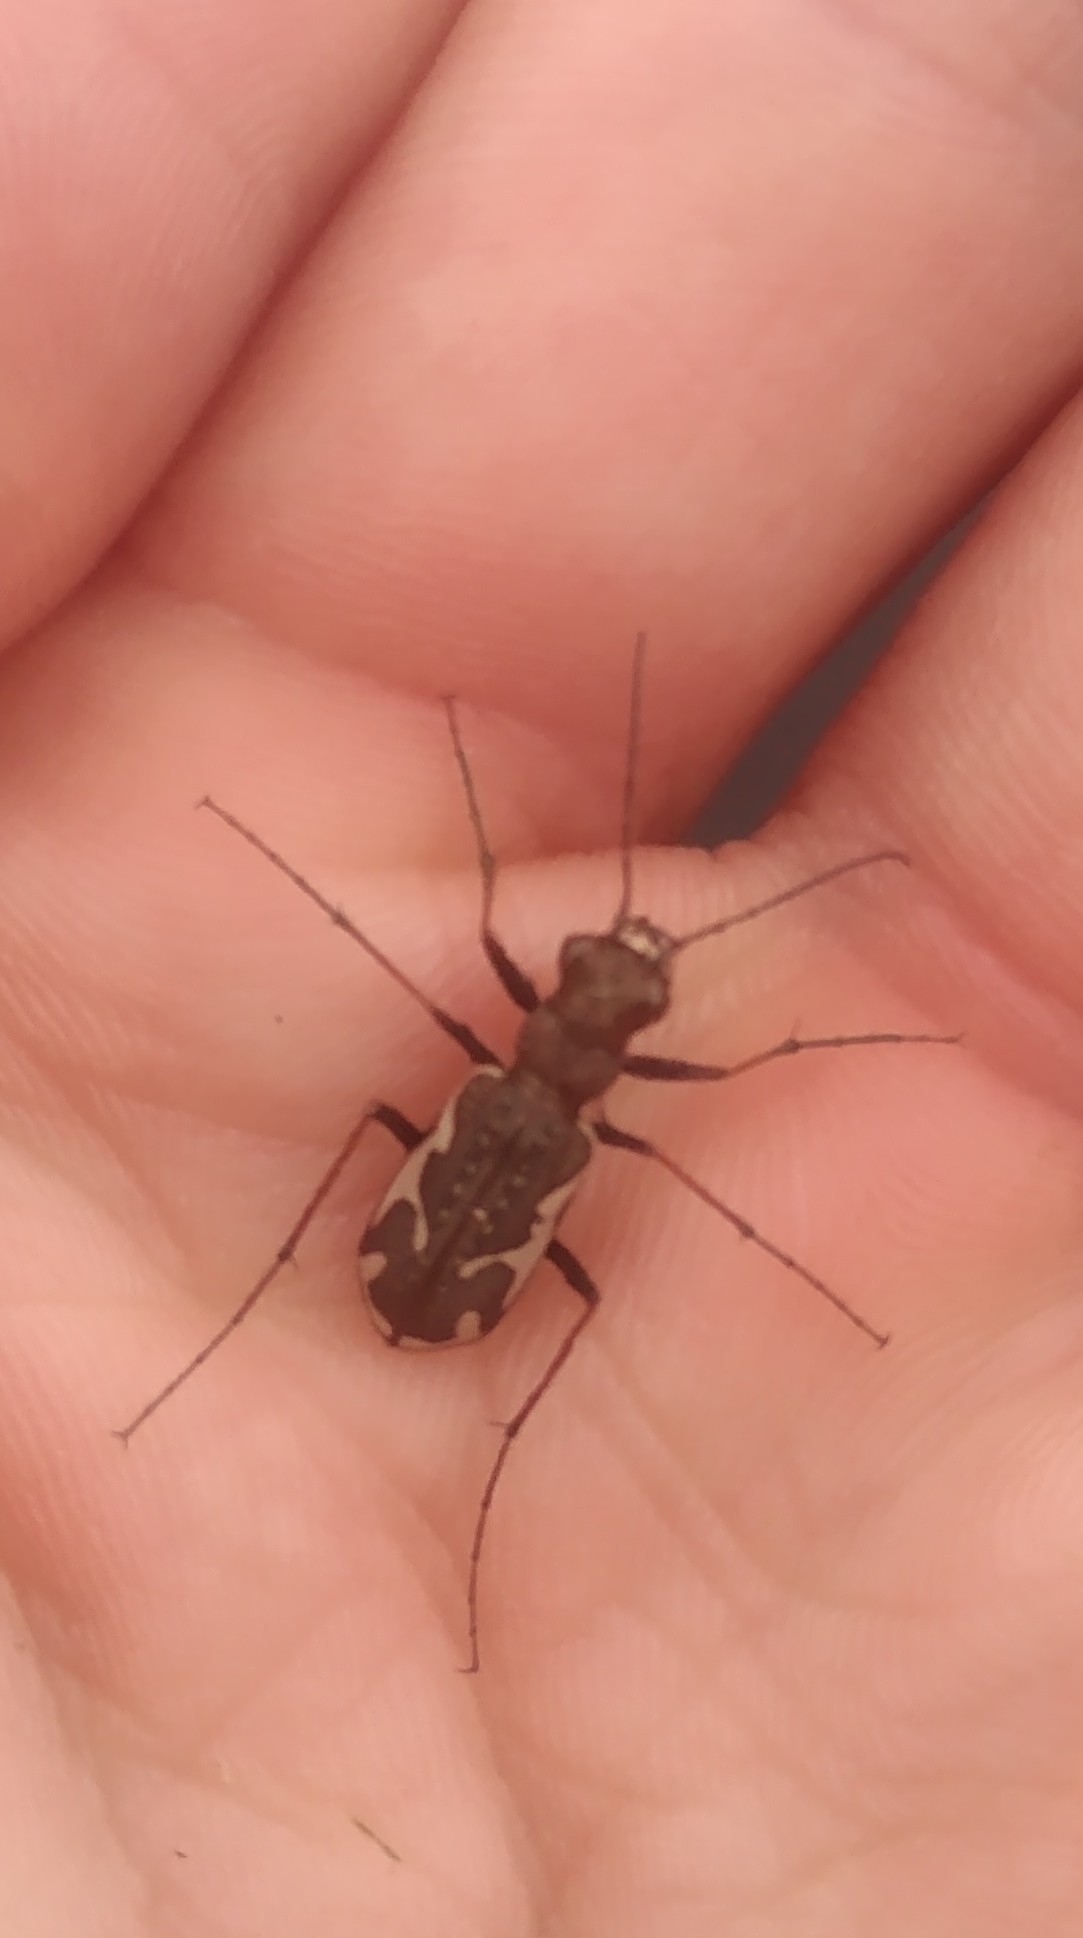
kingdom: Animalia
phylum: Arthropoda
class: Insecta
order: Coleoptera
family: Carabidae
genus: Neocicindela
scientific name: Neocicindela tuberculata
